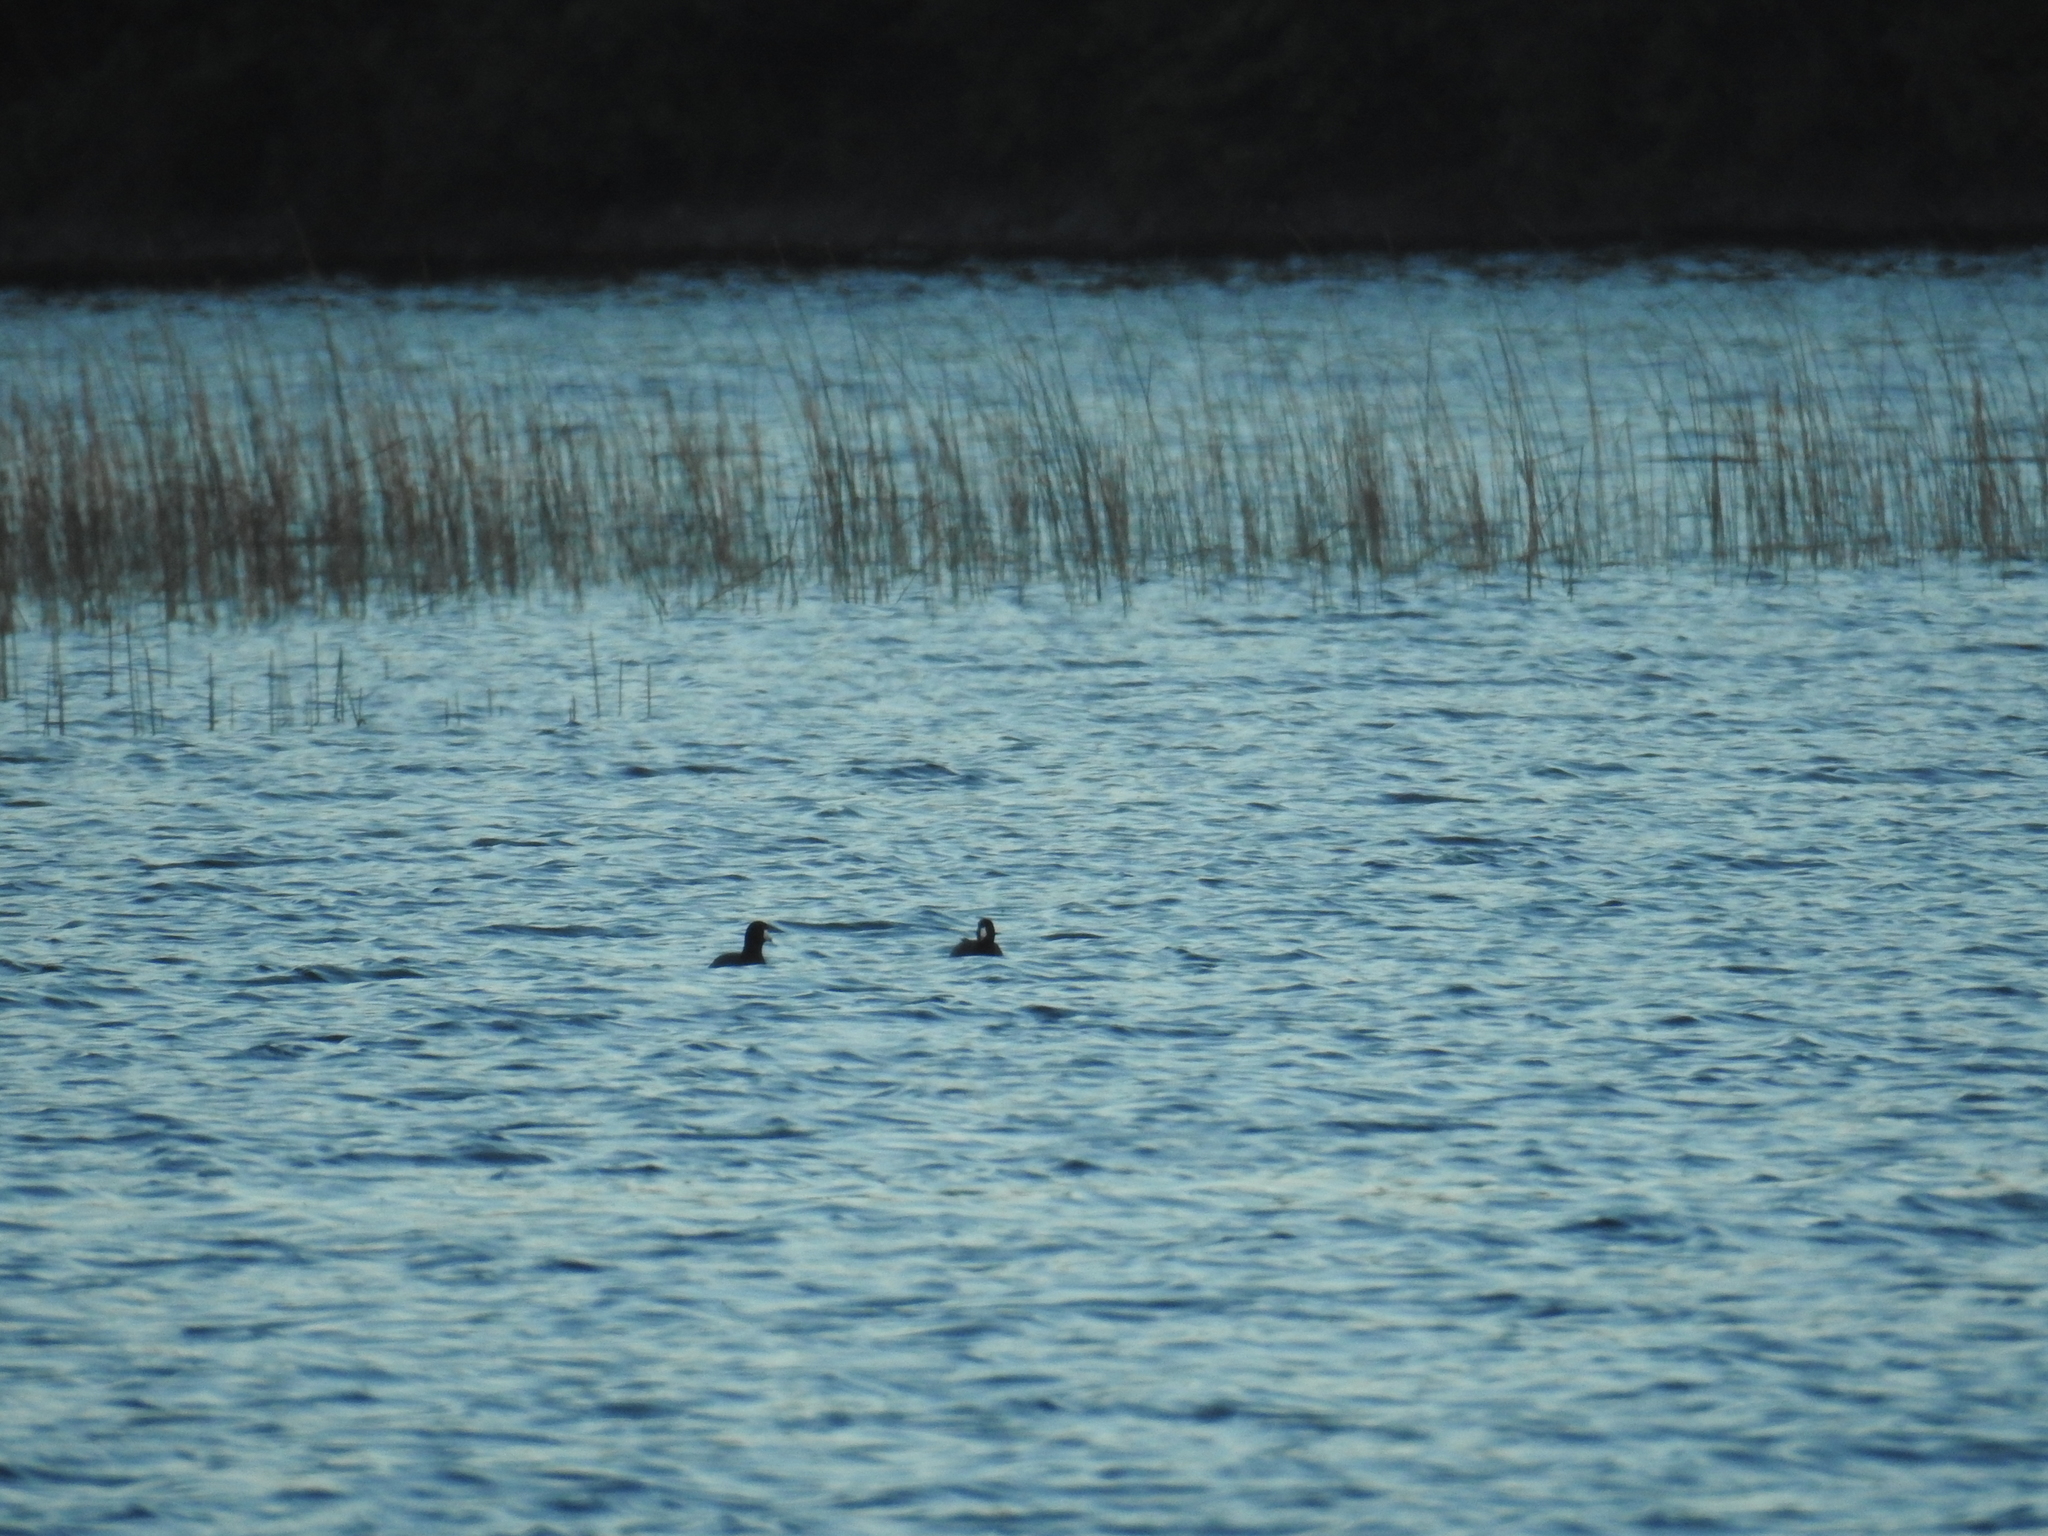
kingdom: Animalia
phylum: Chordata
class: Aves
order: Gruiformes
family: Rallidae
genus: Fulica
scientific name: Fulica americana
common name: American coot
